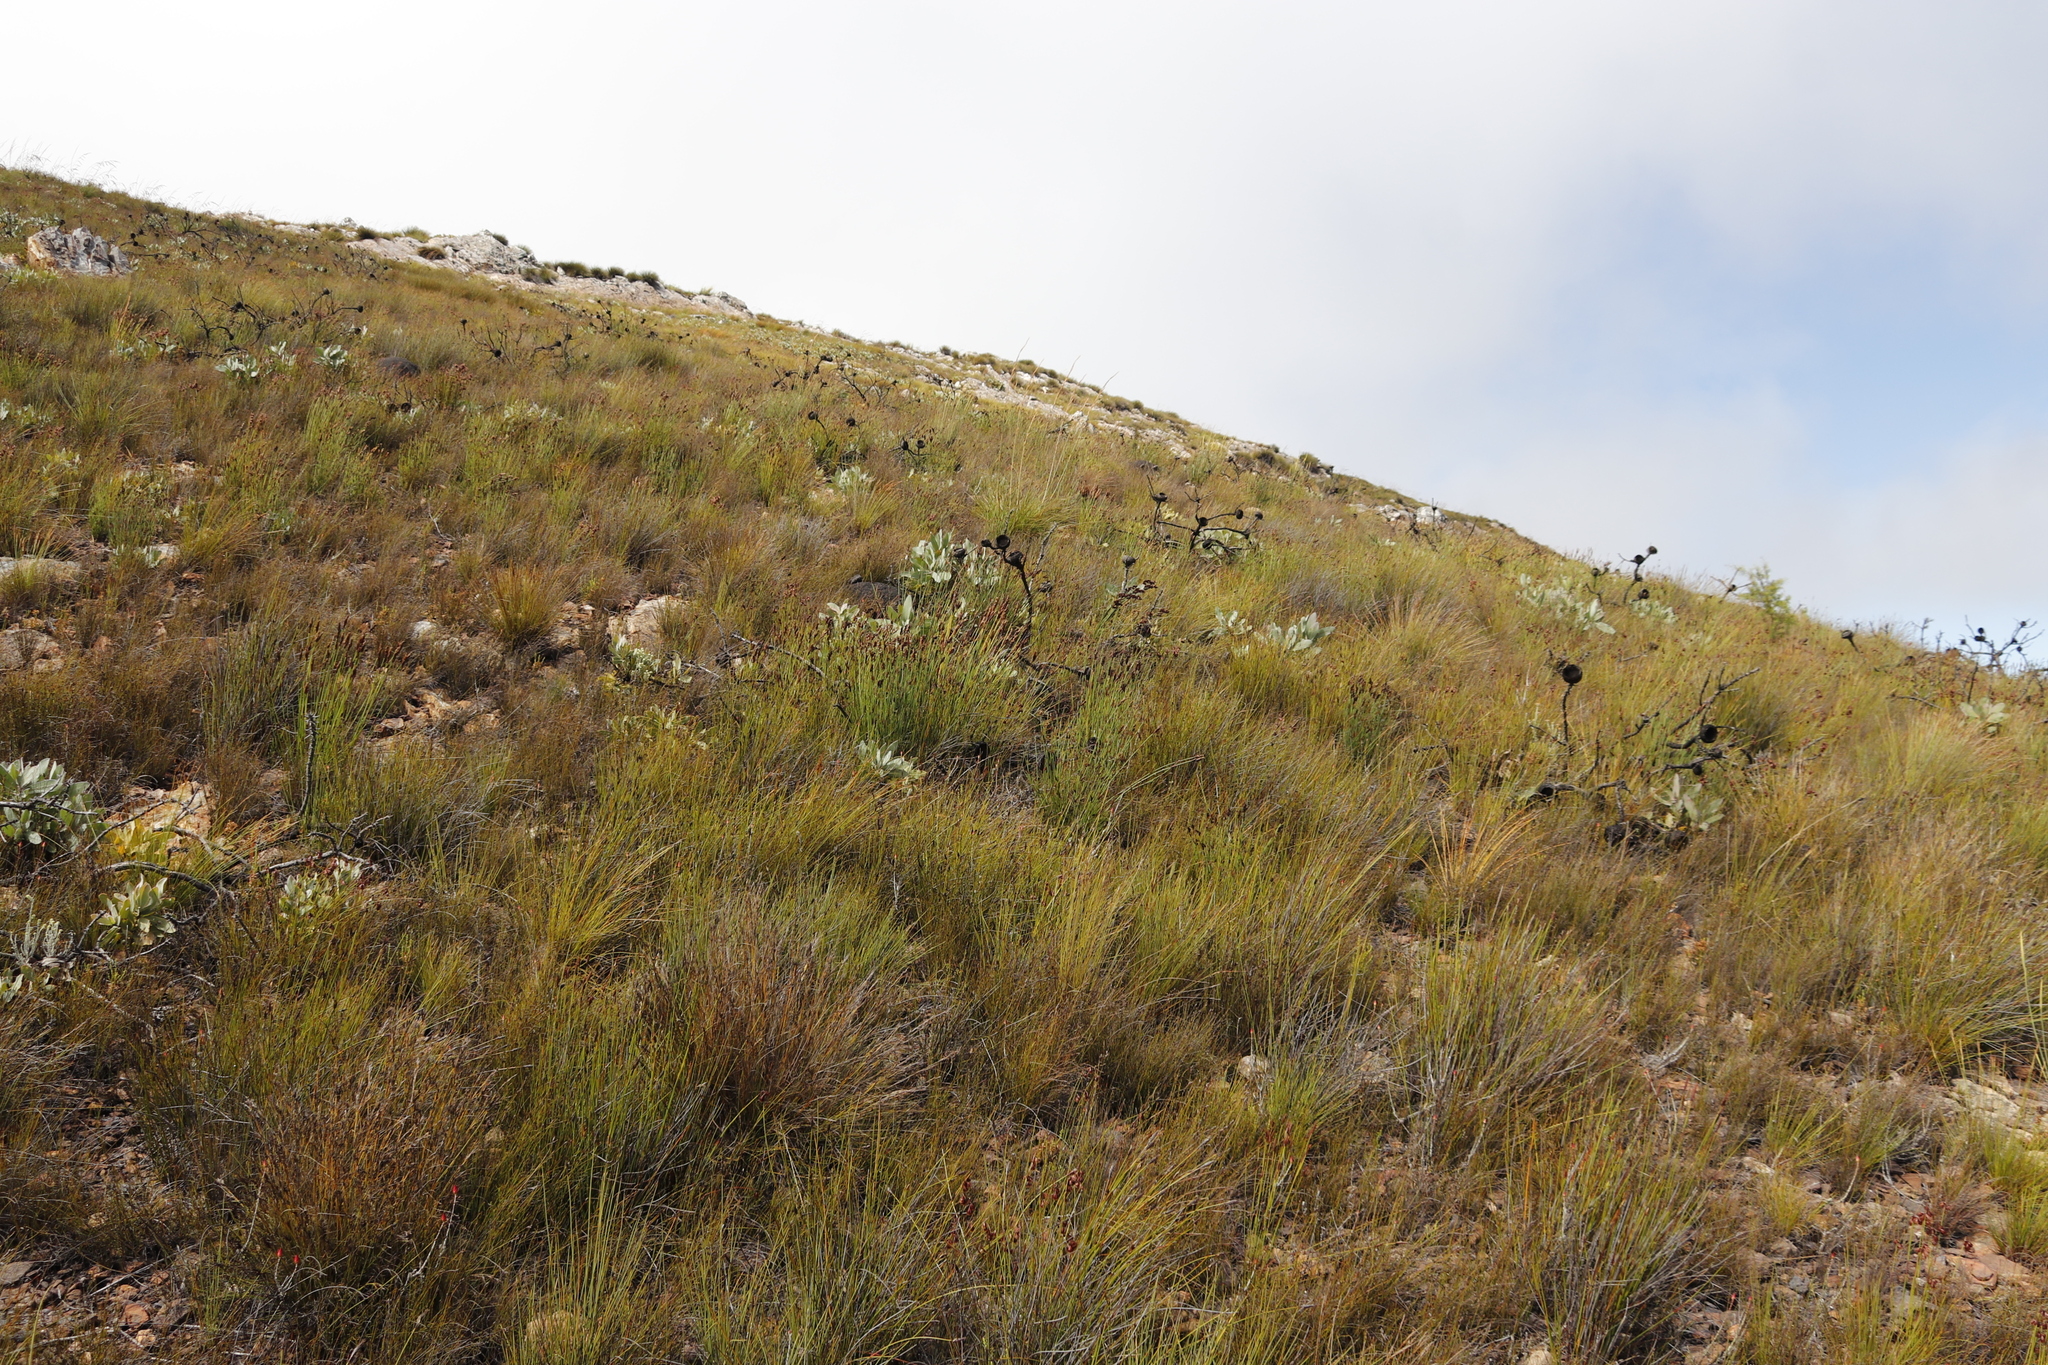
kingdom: Plantae
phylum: Tracheophyta
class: Magnoliopsida
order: Proteales
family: Proteaceae
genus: Protea
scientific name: Protea magnifica
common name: Bearded sugarbush
